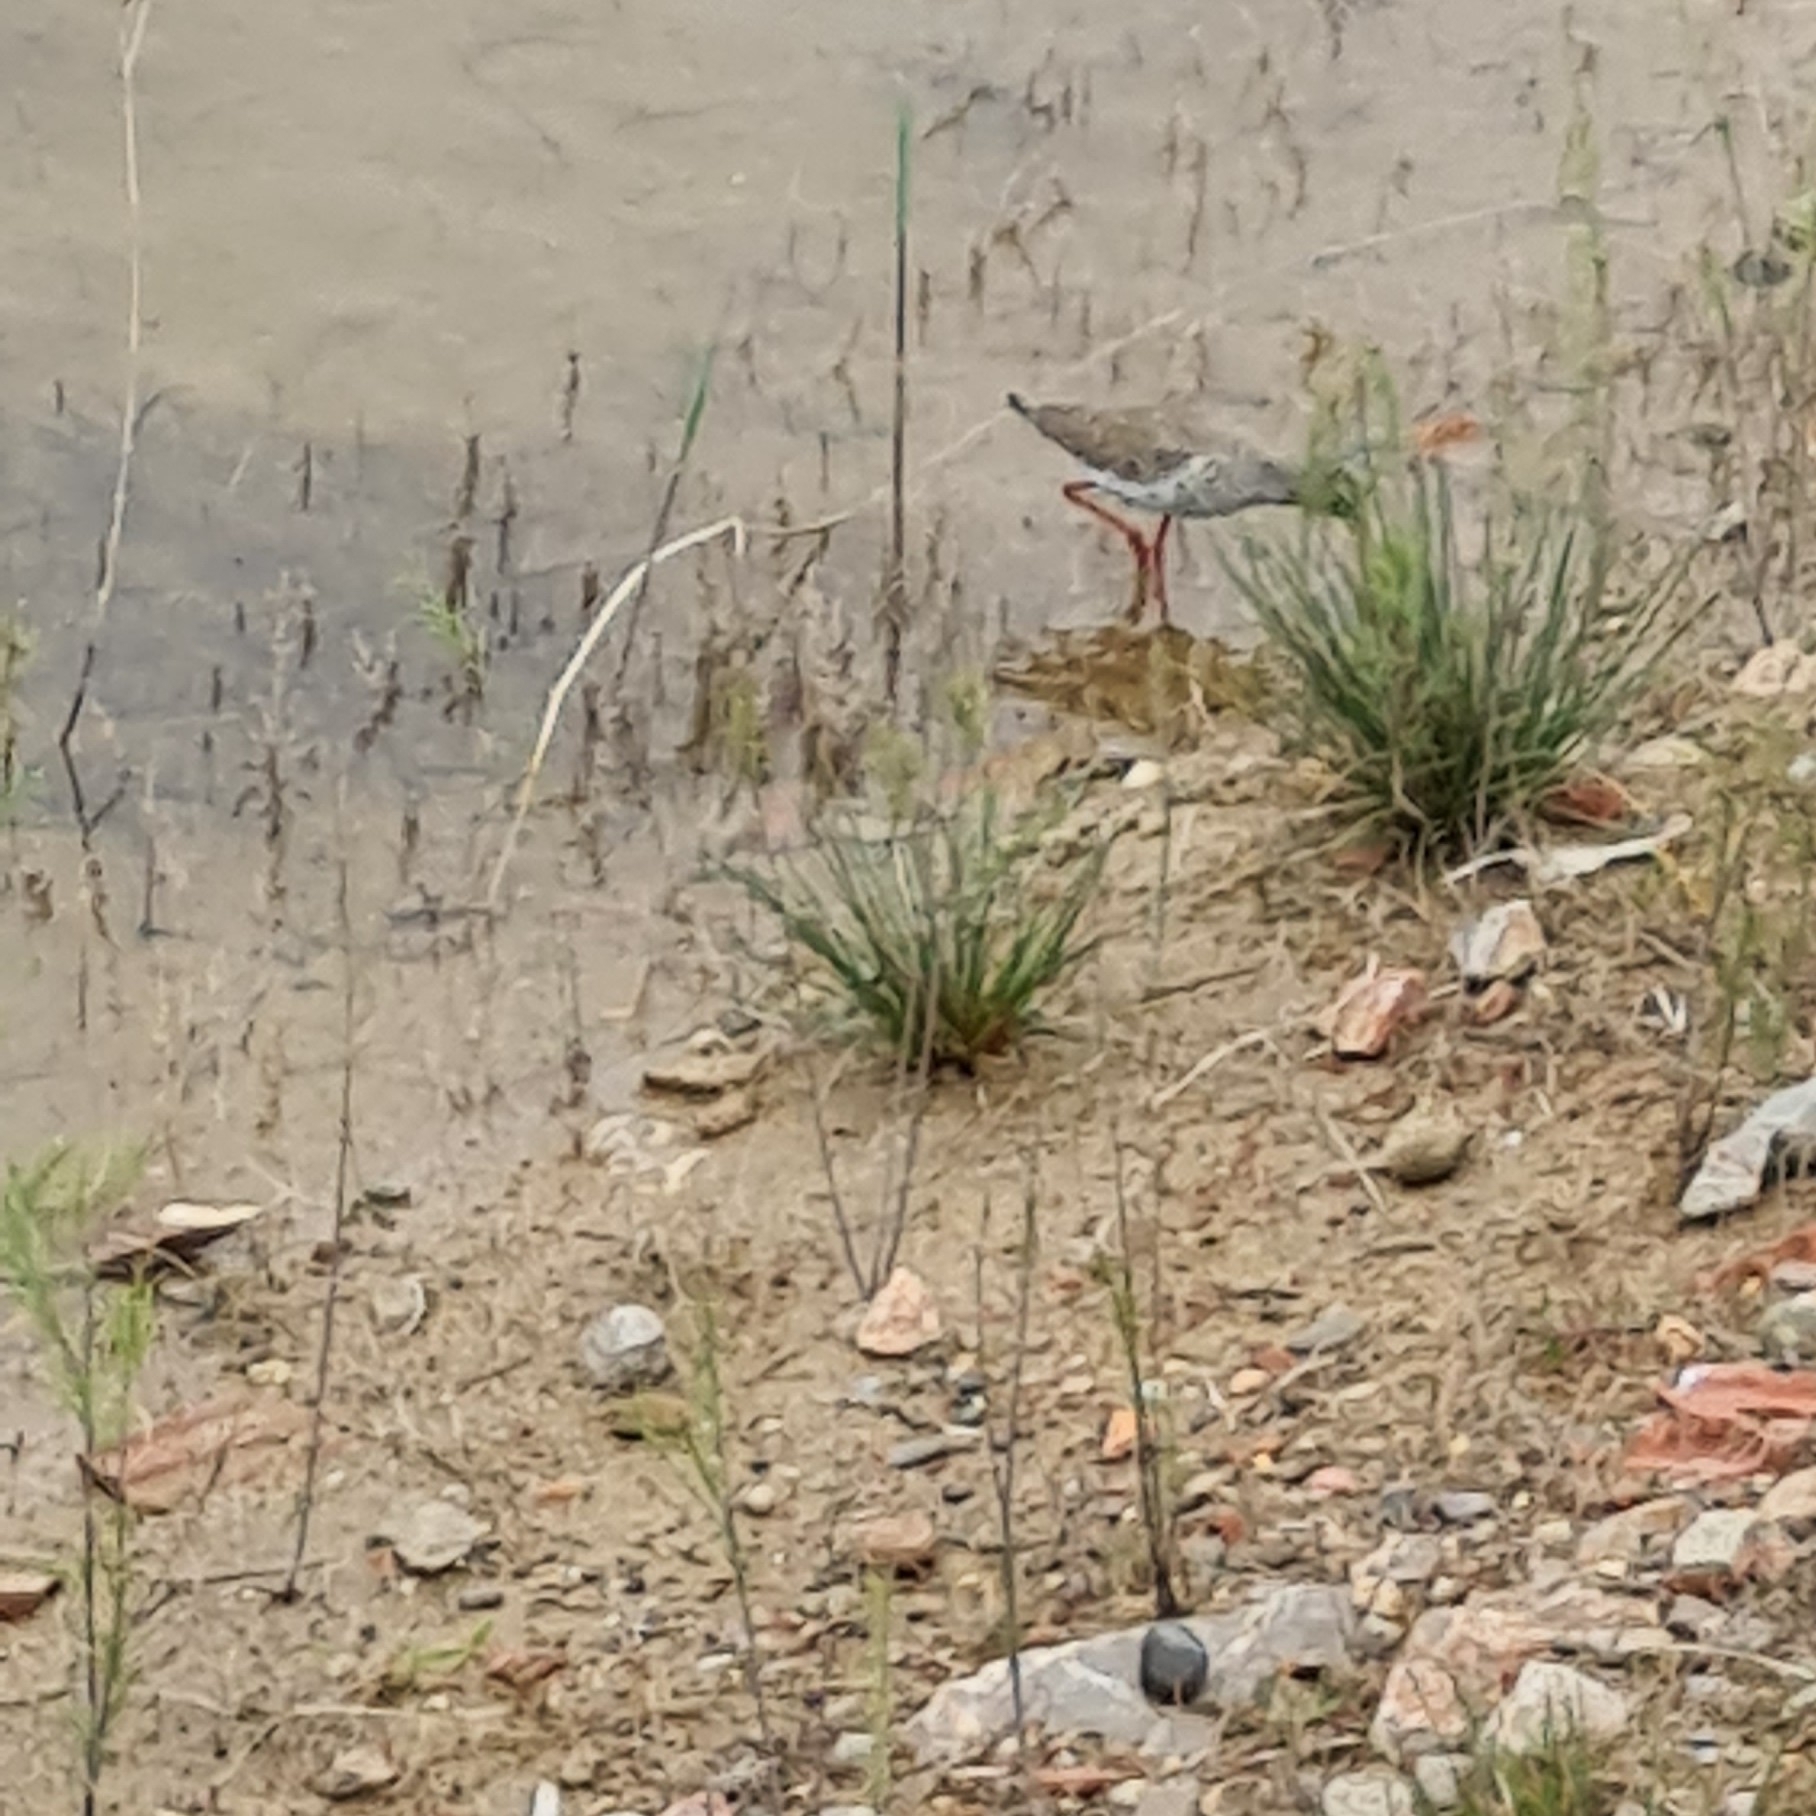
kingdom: Animalia
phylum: Chordata
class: Aves
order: Charadriiformes
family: Scolopacidae
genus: Tringa
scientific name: Tringa totanus
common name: Common redshank
